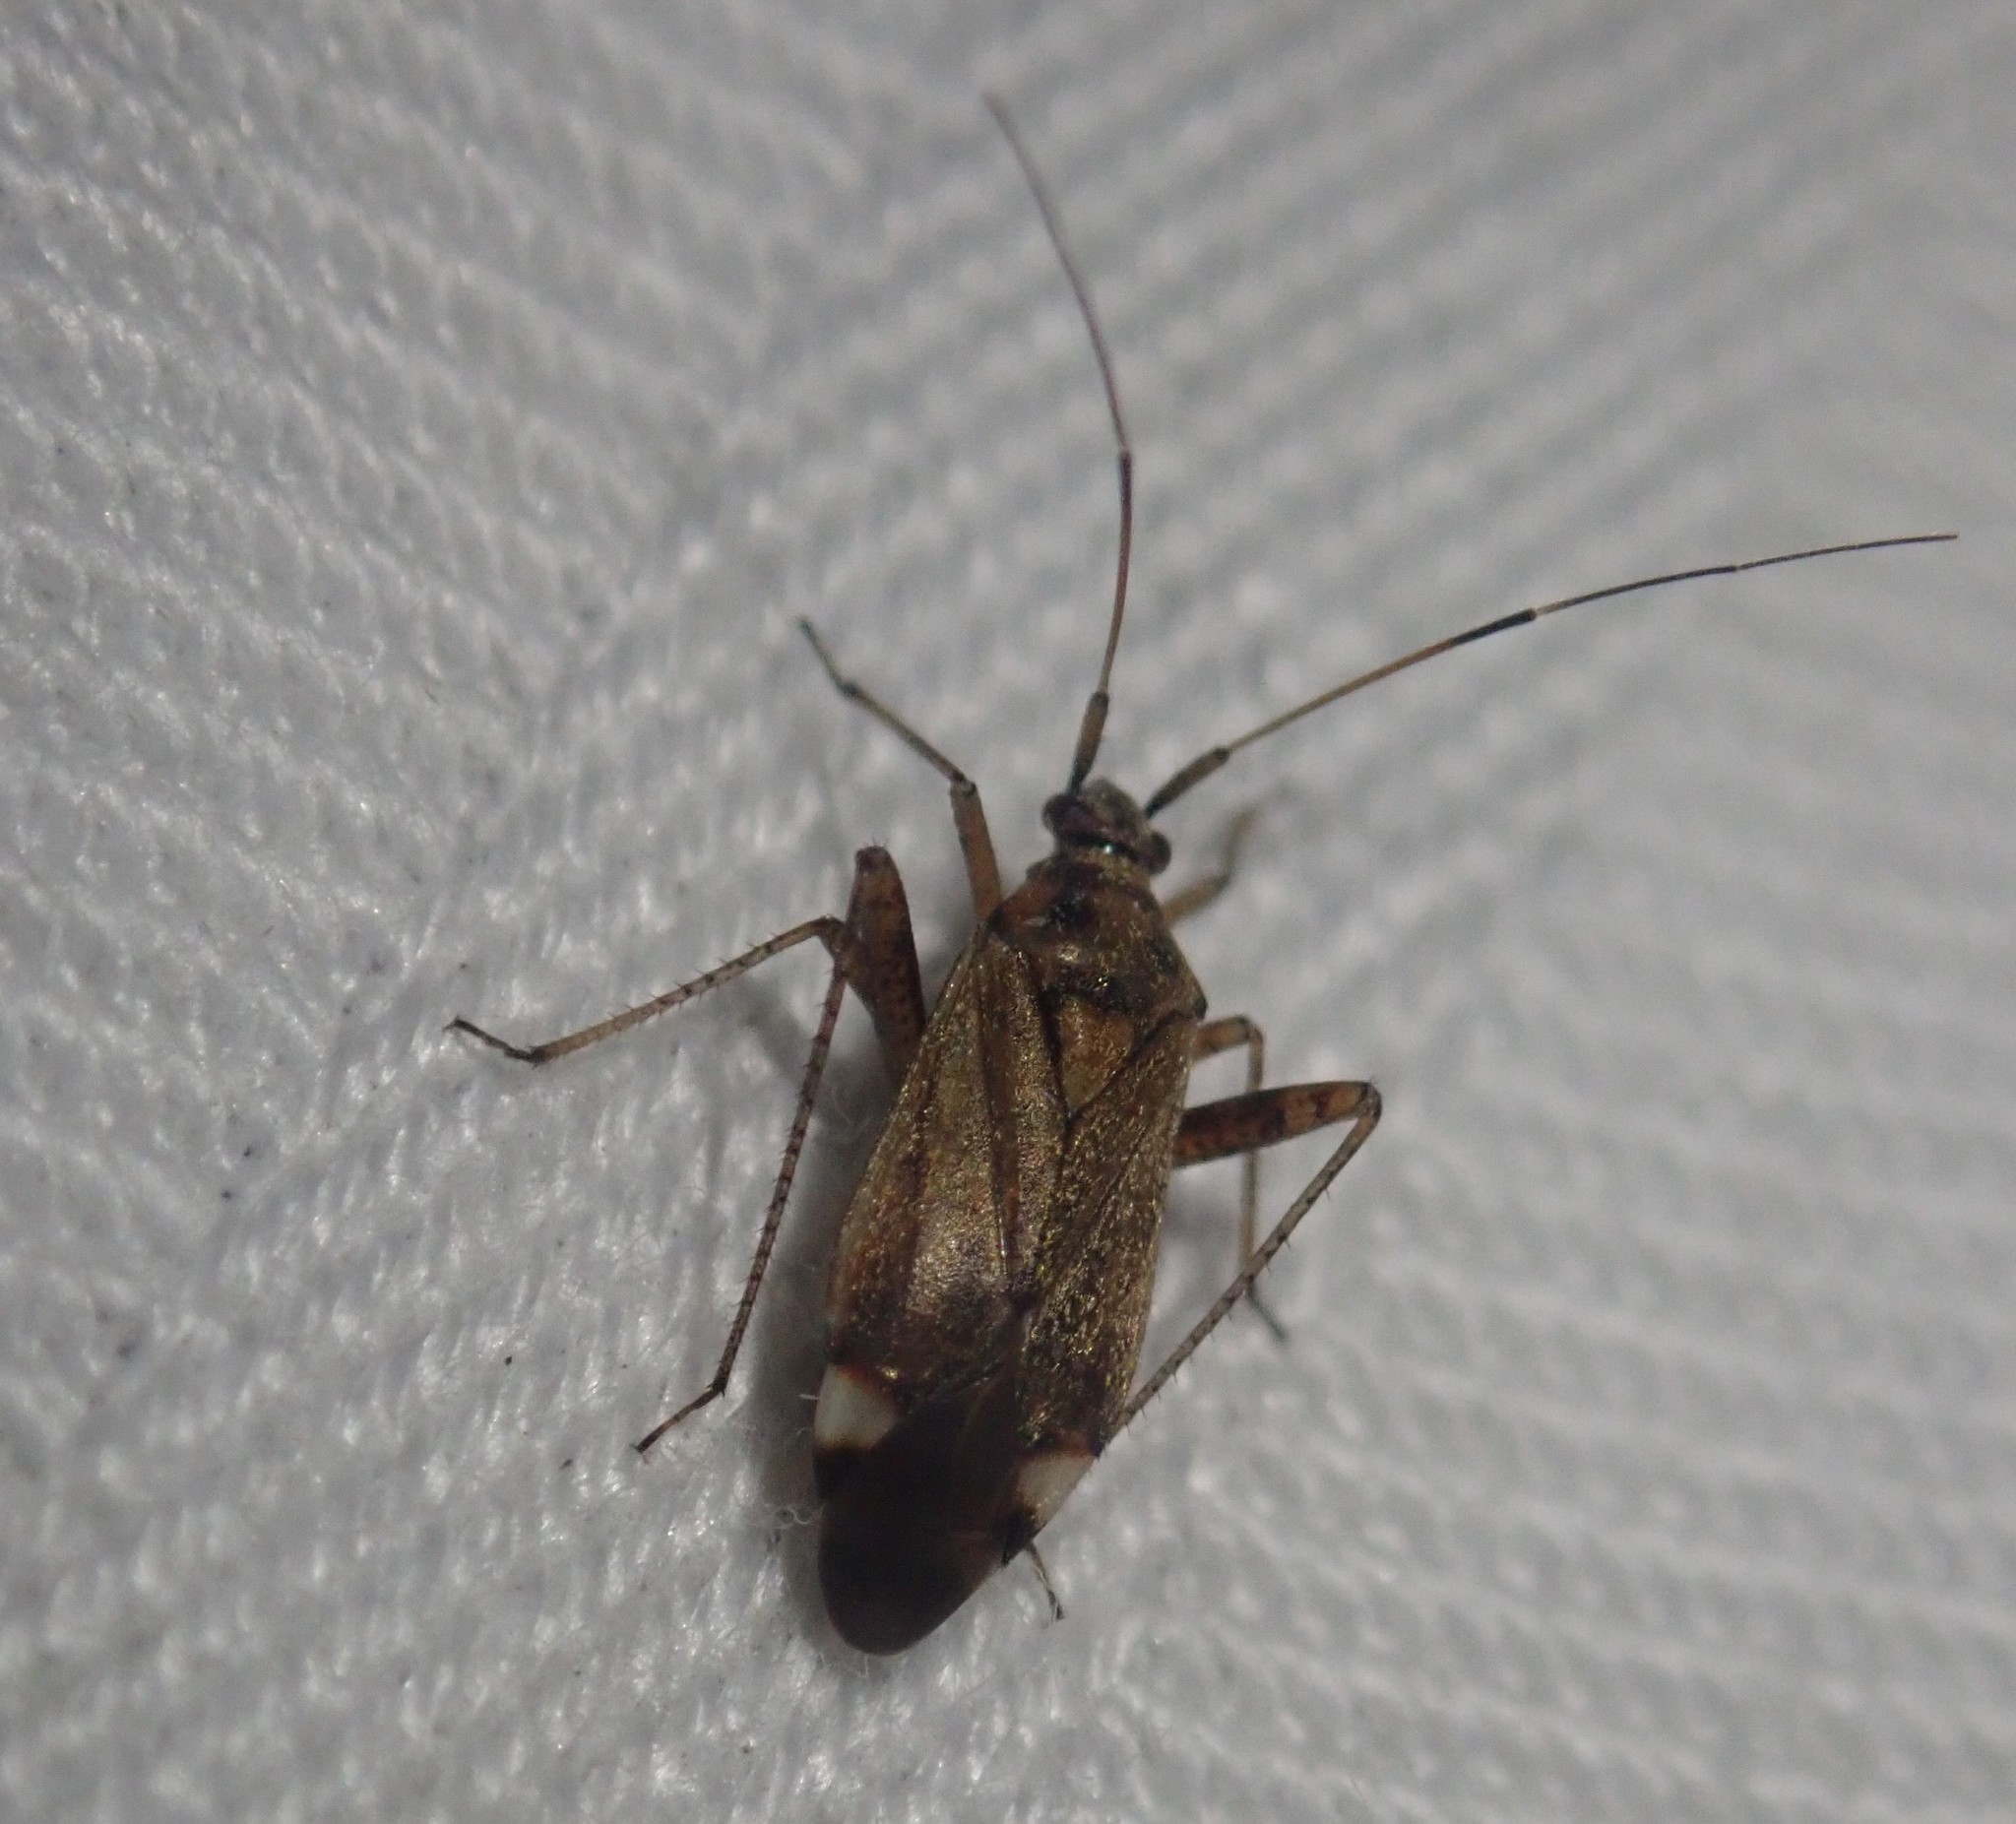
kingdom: Animalia
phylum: Arthropoda
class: Insecta
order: Hemiptera
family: Miridae
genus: Closterotomus
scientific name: Closterotomus fulvomaculatus
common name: Spotted plant bug
